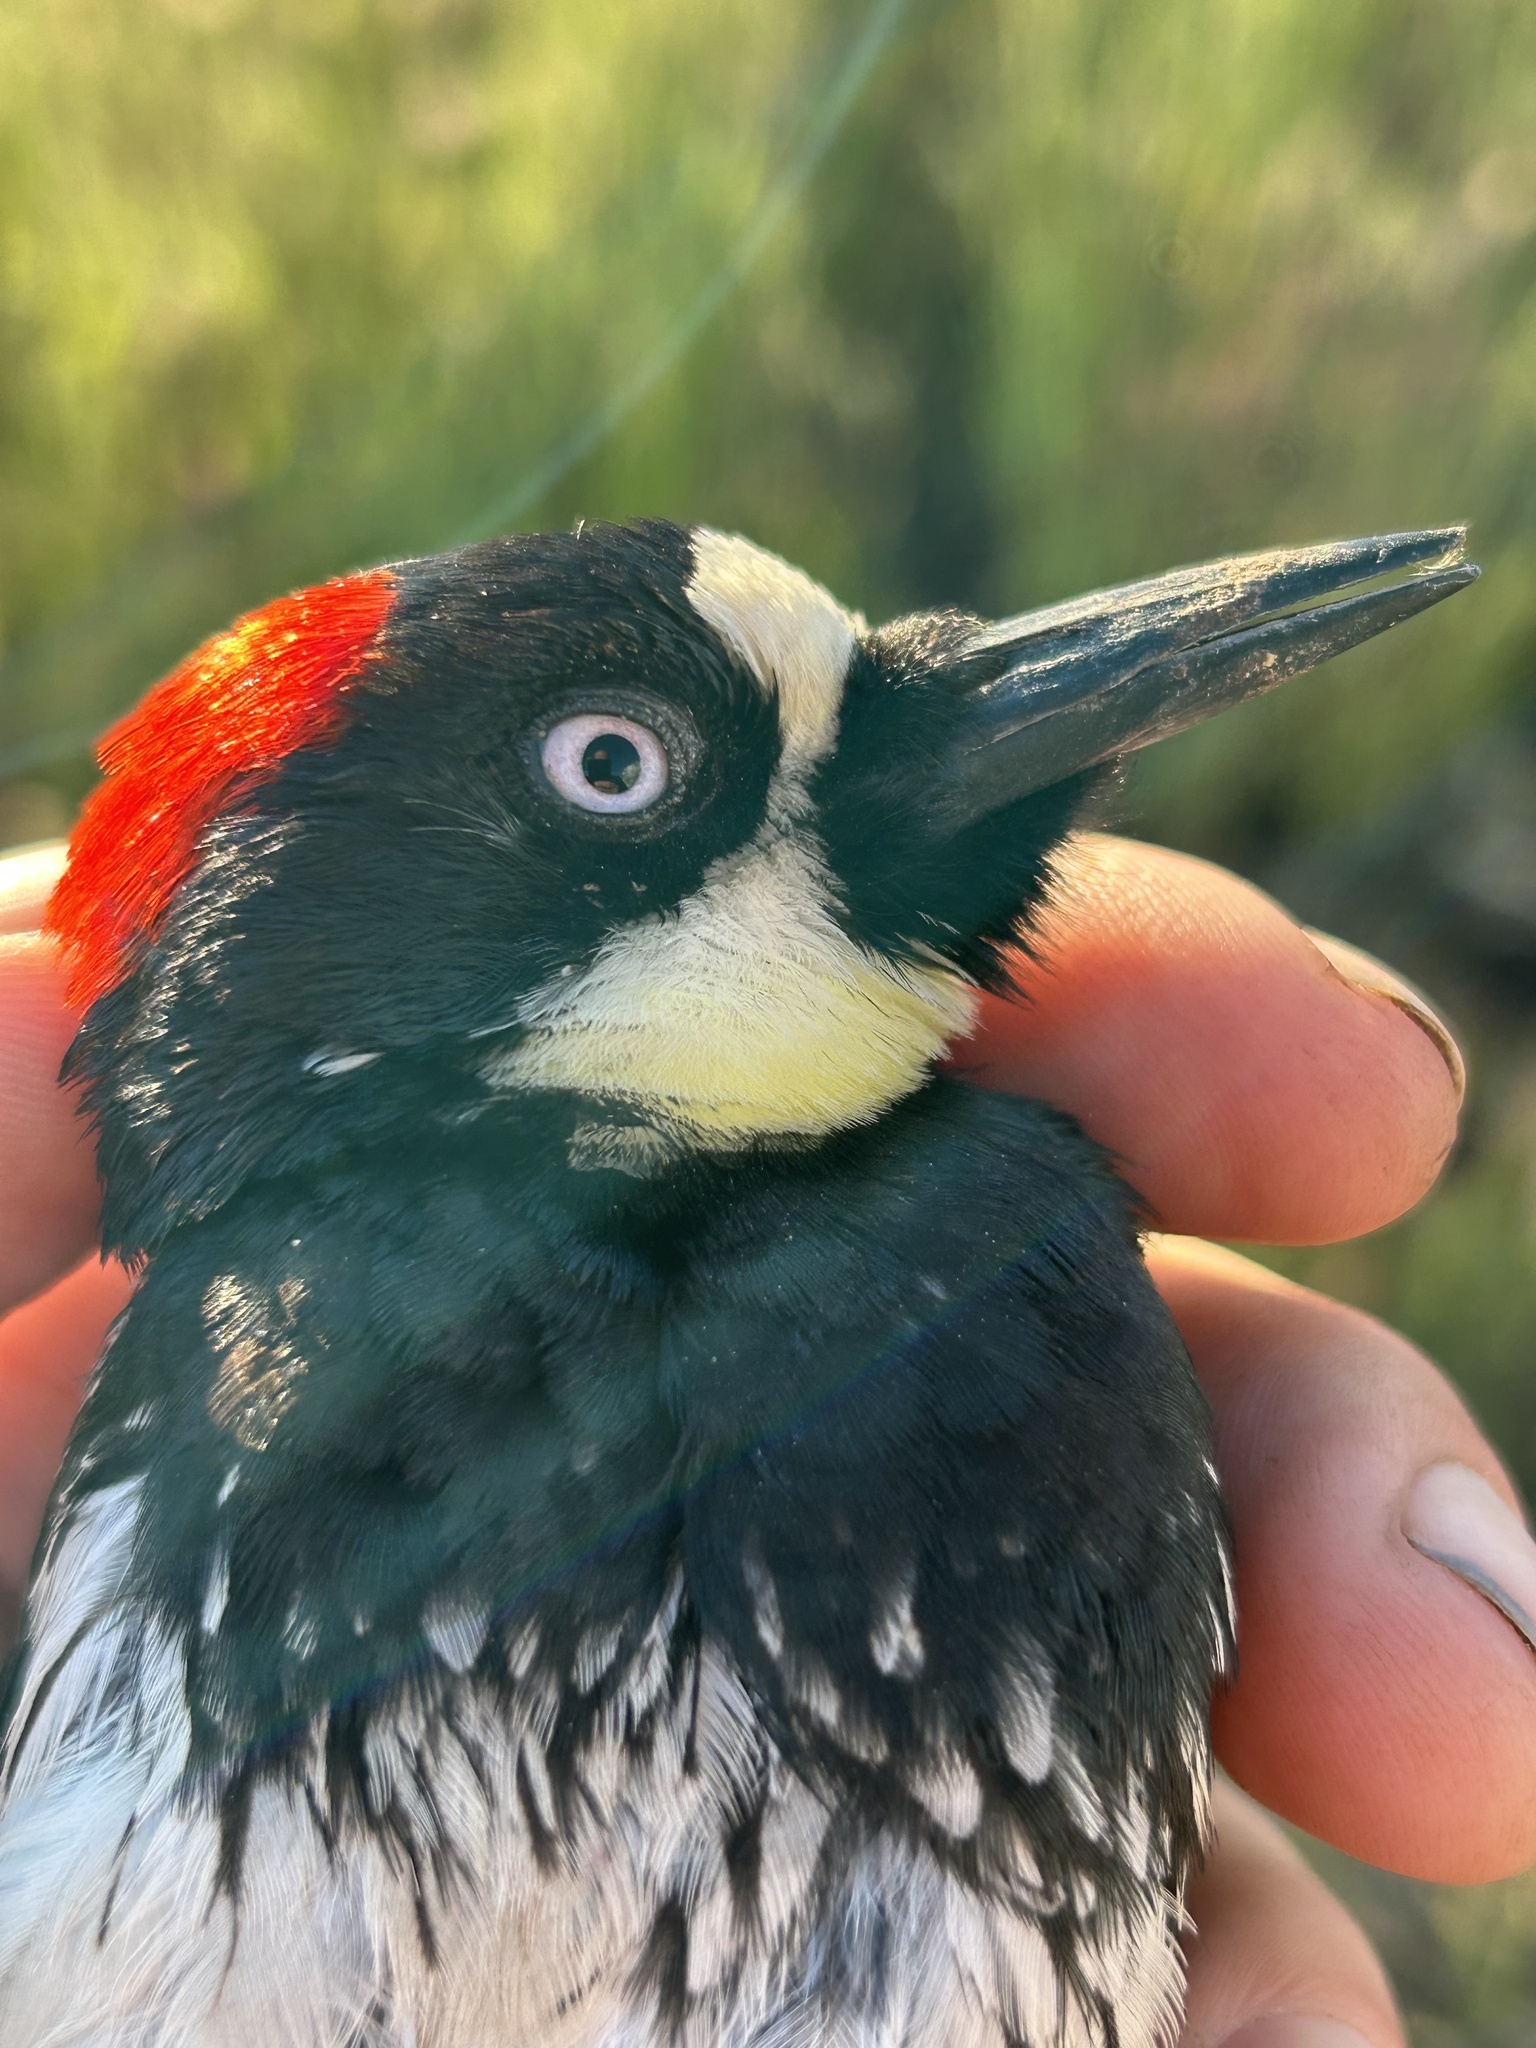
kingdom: Animalia
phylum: Chordata
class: Aves
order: Piciformes
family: Picidae
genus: Melanerpes
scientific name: Melanerpes formicivorus
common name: Acorn woodpecker
